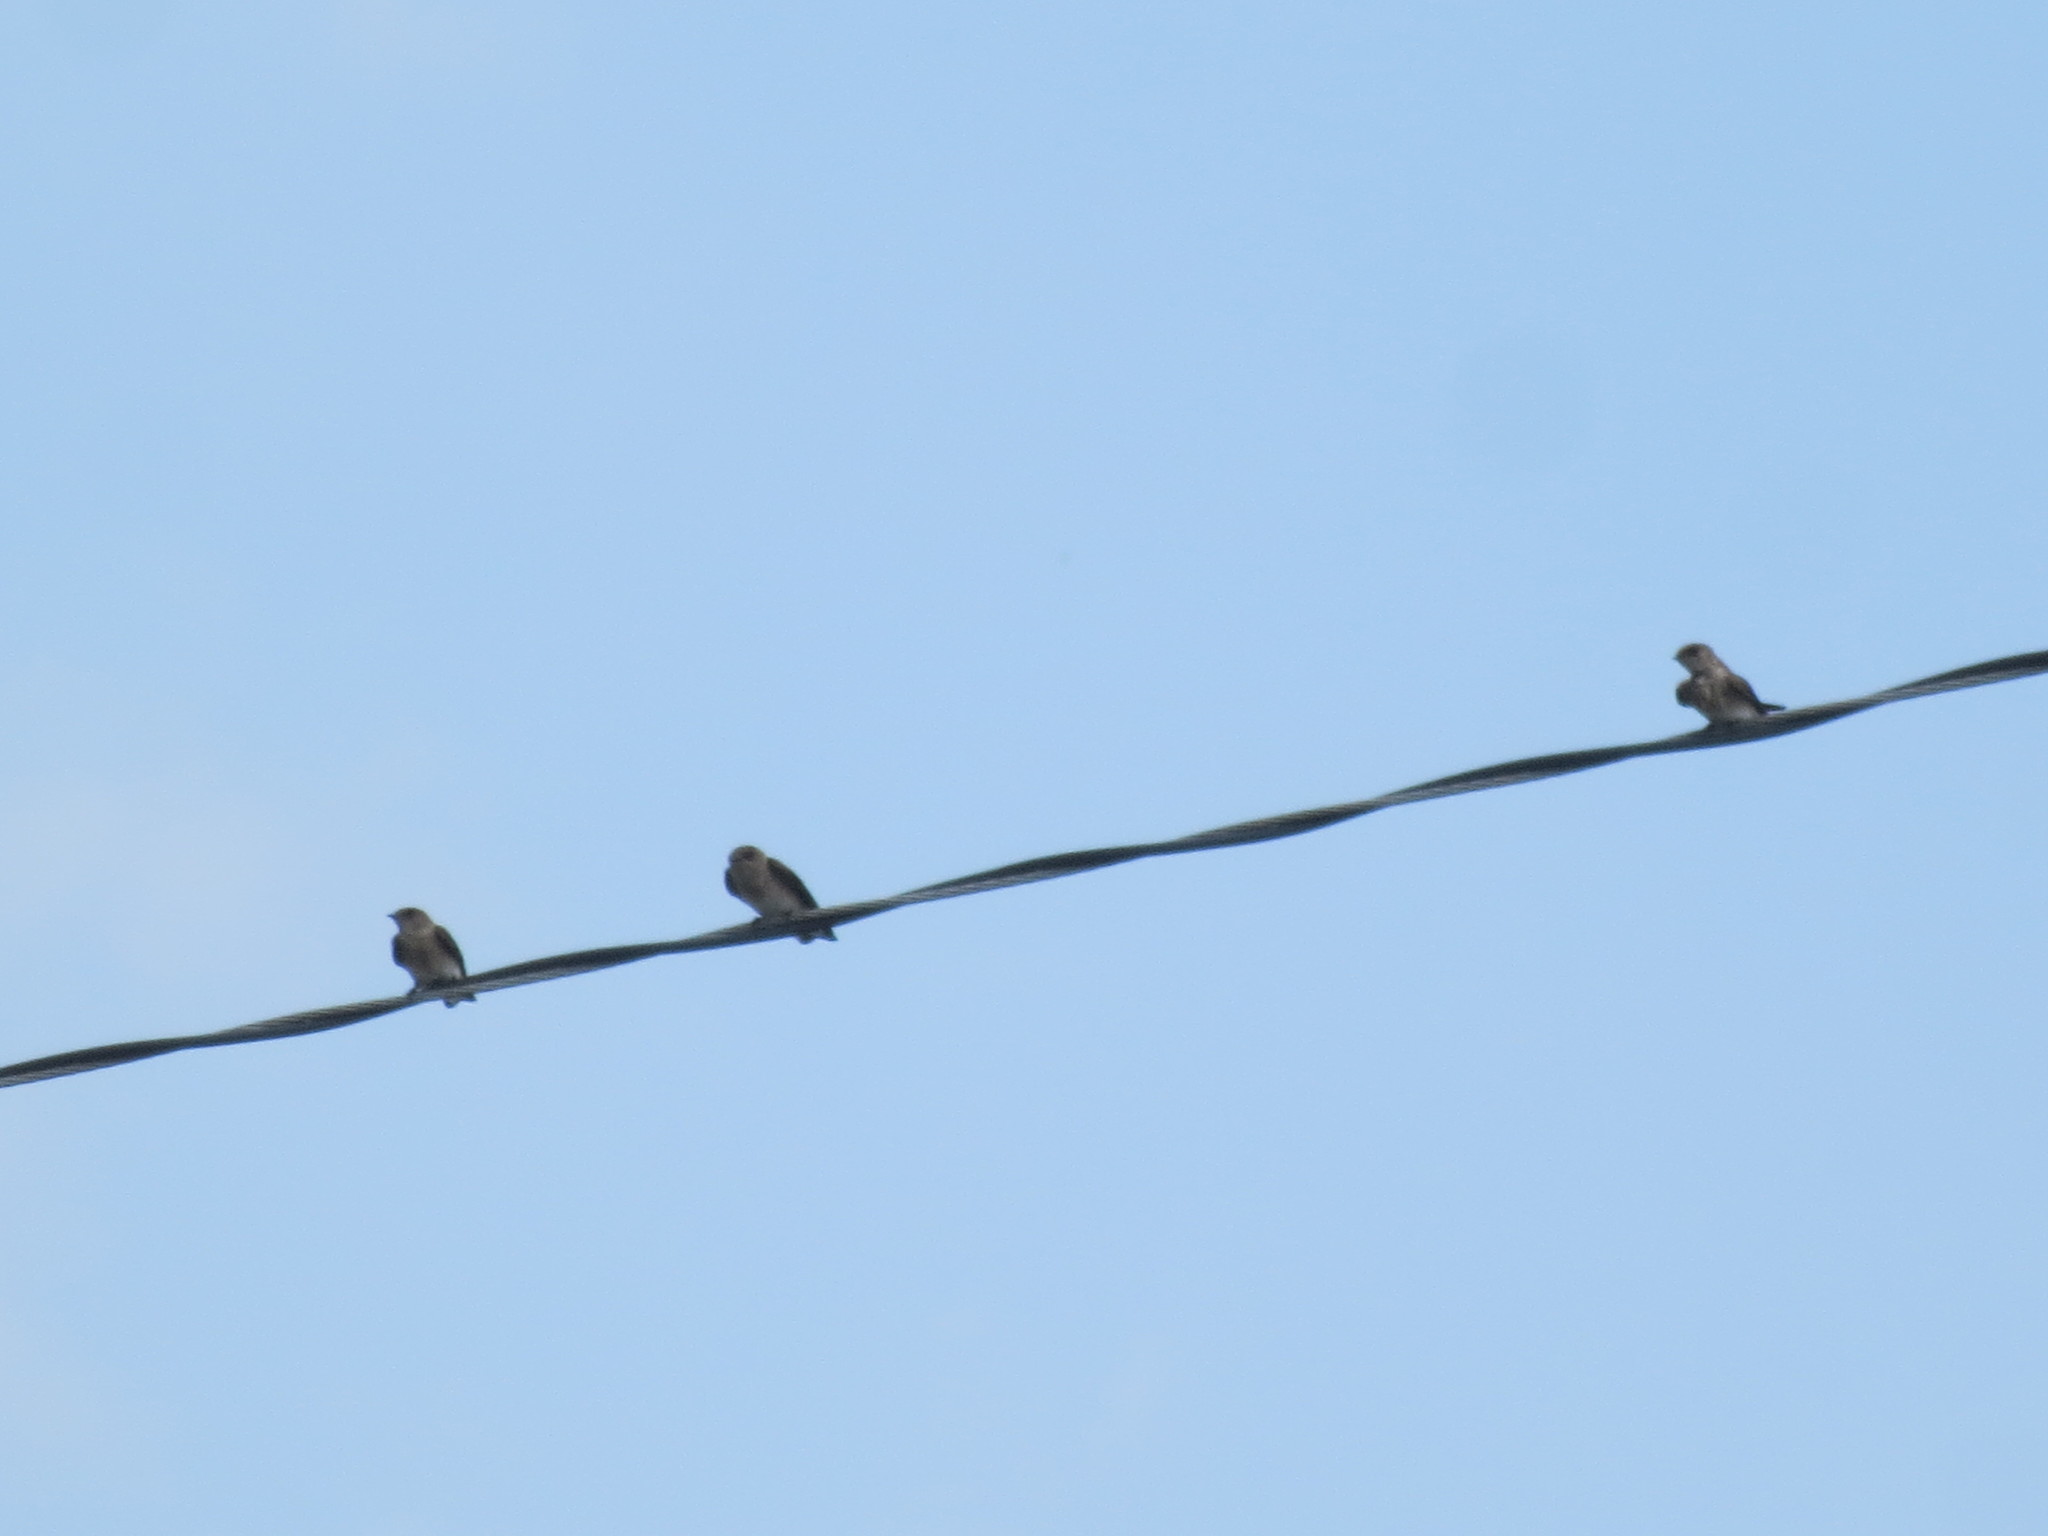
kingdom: Animalia
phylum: Chordata
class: Aves
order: Passeriformes
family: Hirundinidae
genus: Stelgidopteryx
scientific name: Stelgidopteryx serripennis
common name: Northern rough-winged swallow
